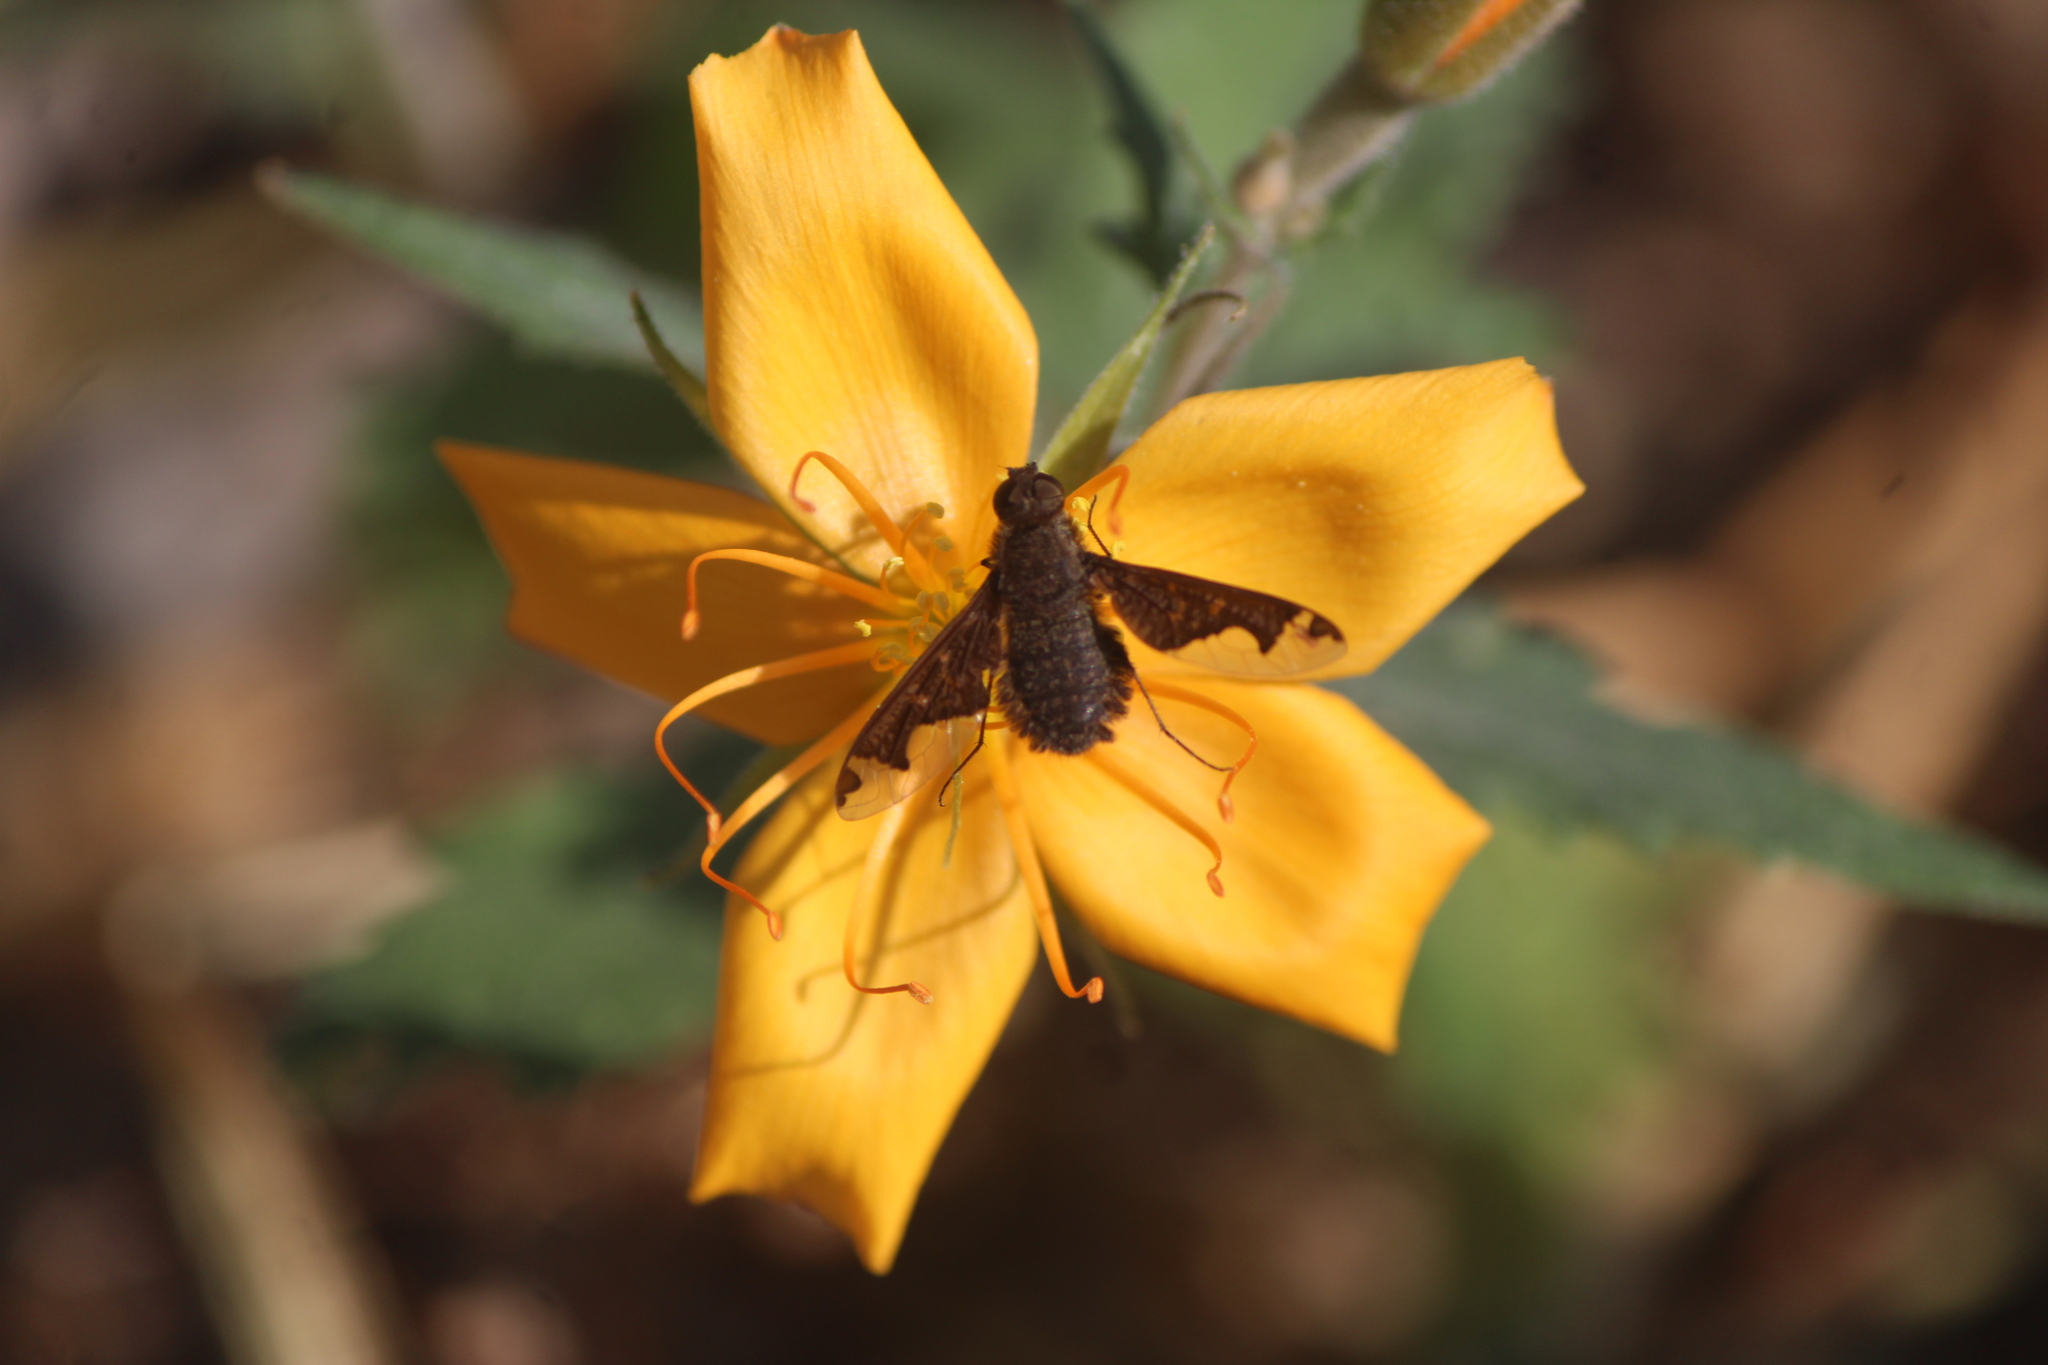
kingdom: Animalia
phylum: Arthropoda
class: Insecta
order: Diptera
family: Bombyliidae
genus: Hemipenthes
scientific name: Hemipenthes jaennickeana
